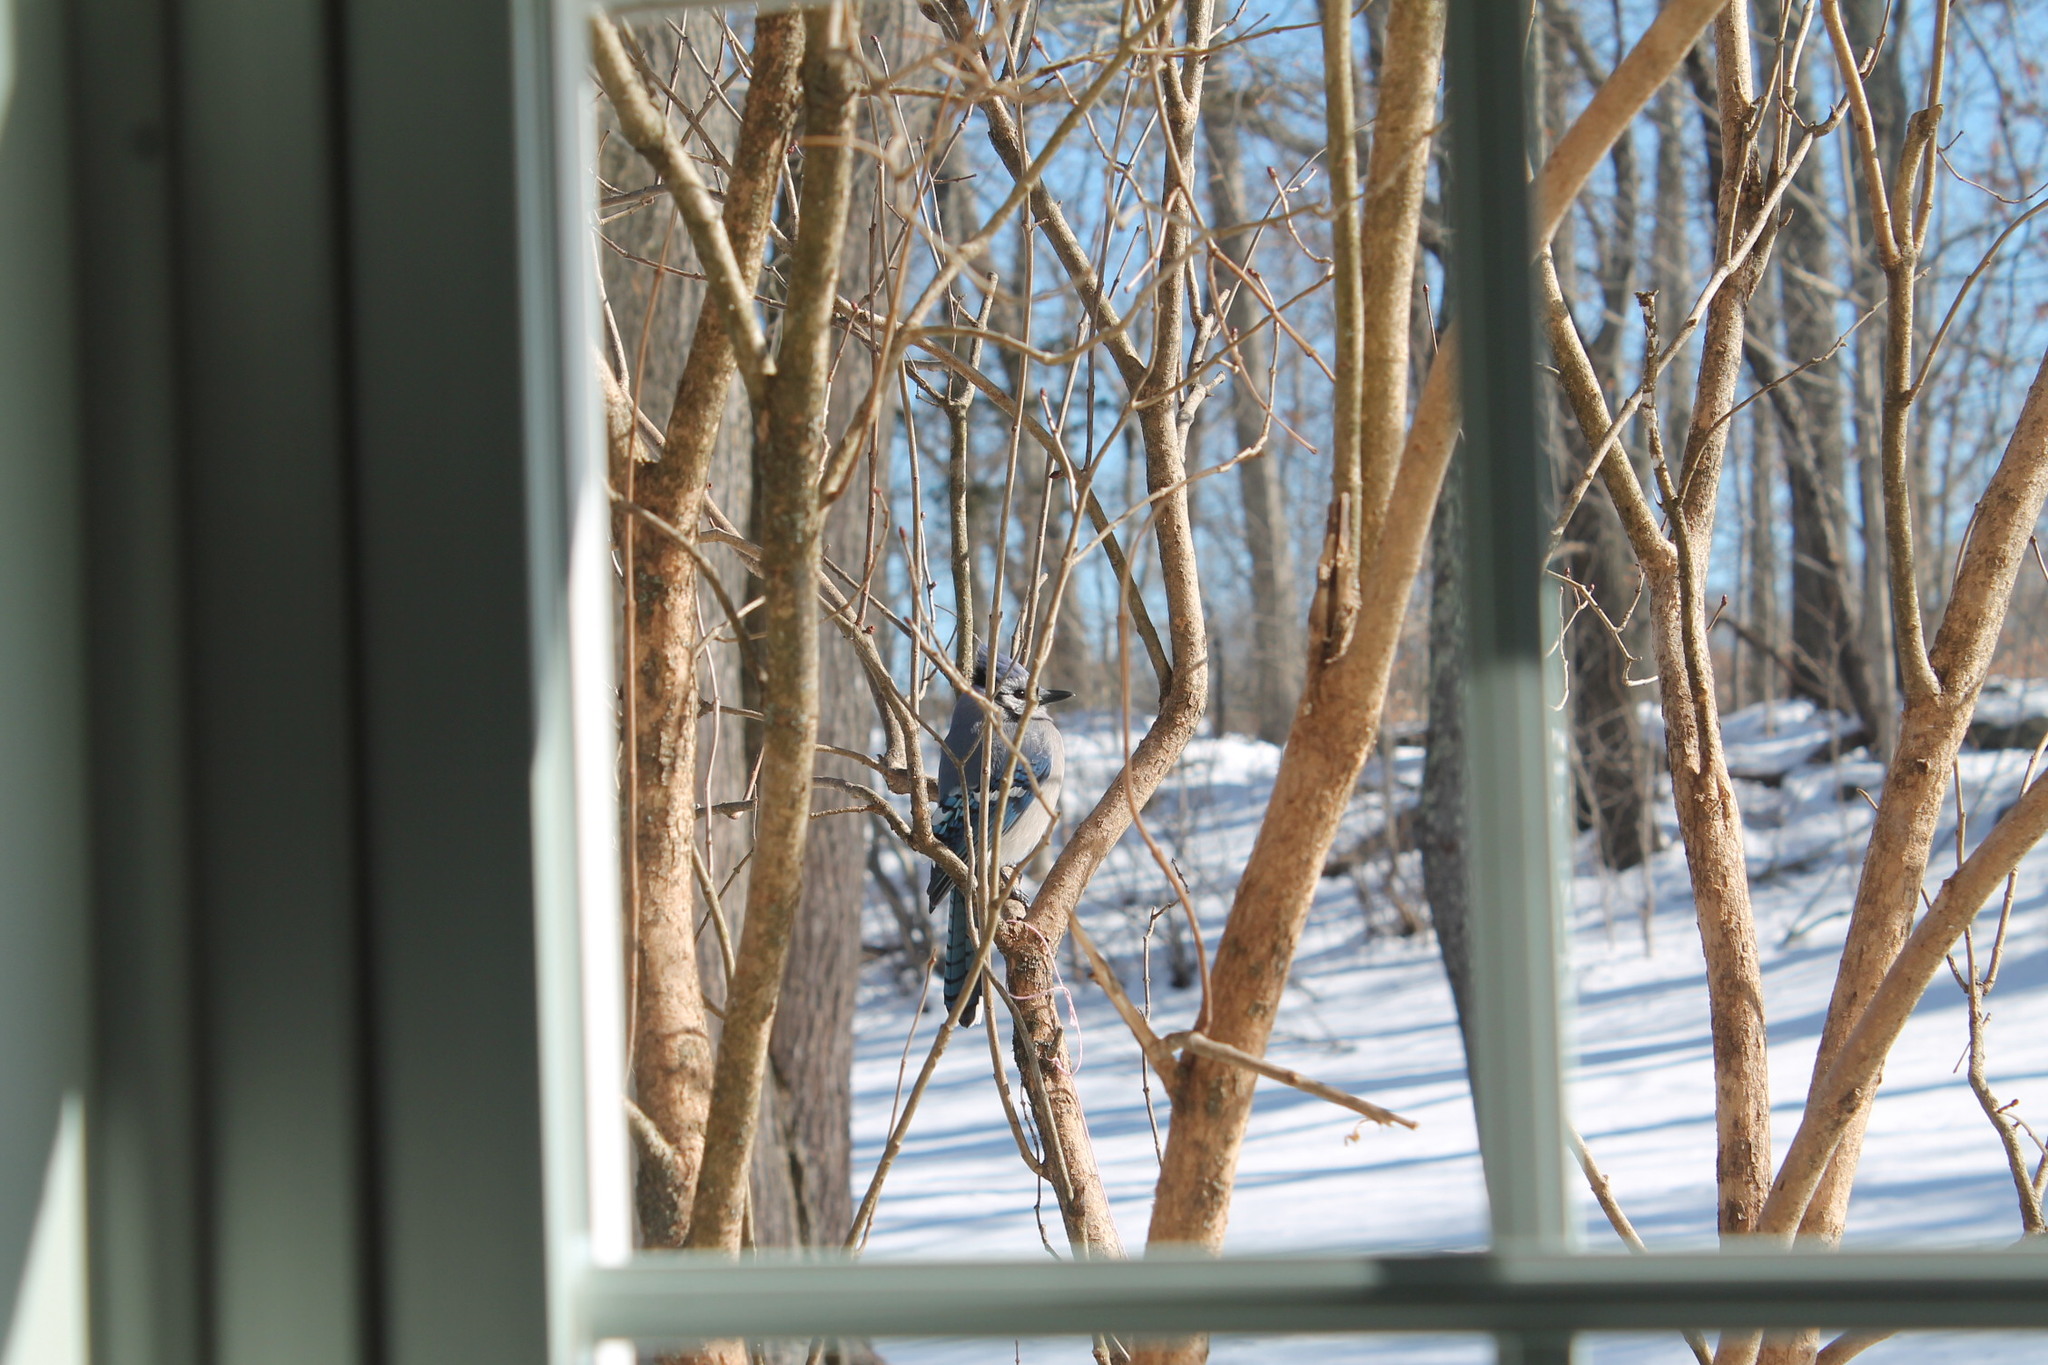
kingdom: Animalia
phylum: Chordata
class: Aves
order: Passeriformes
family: Corvidae
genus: Cyanocitta
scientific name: Cyanocitta cristata
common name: Blue jay
